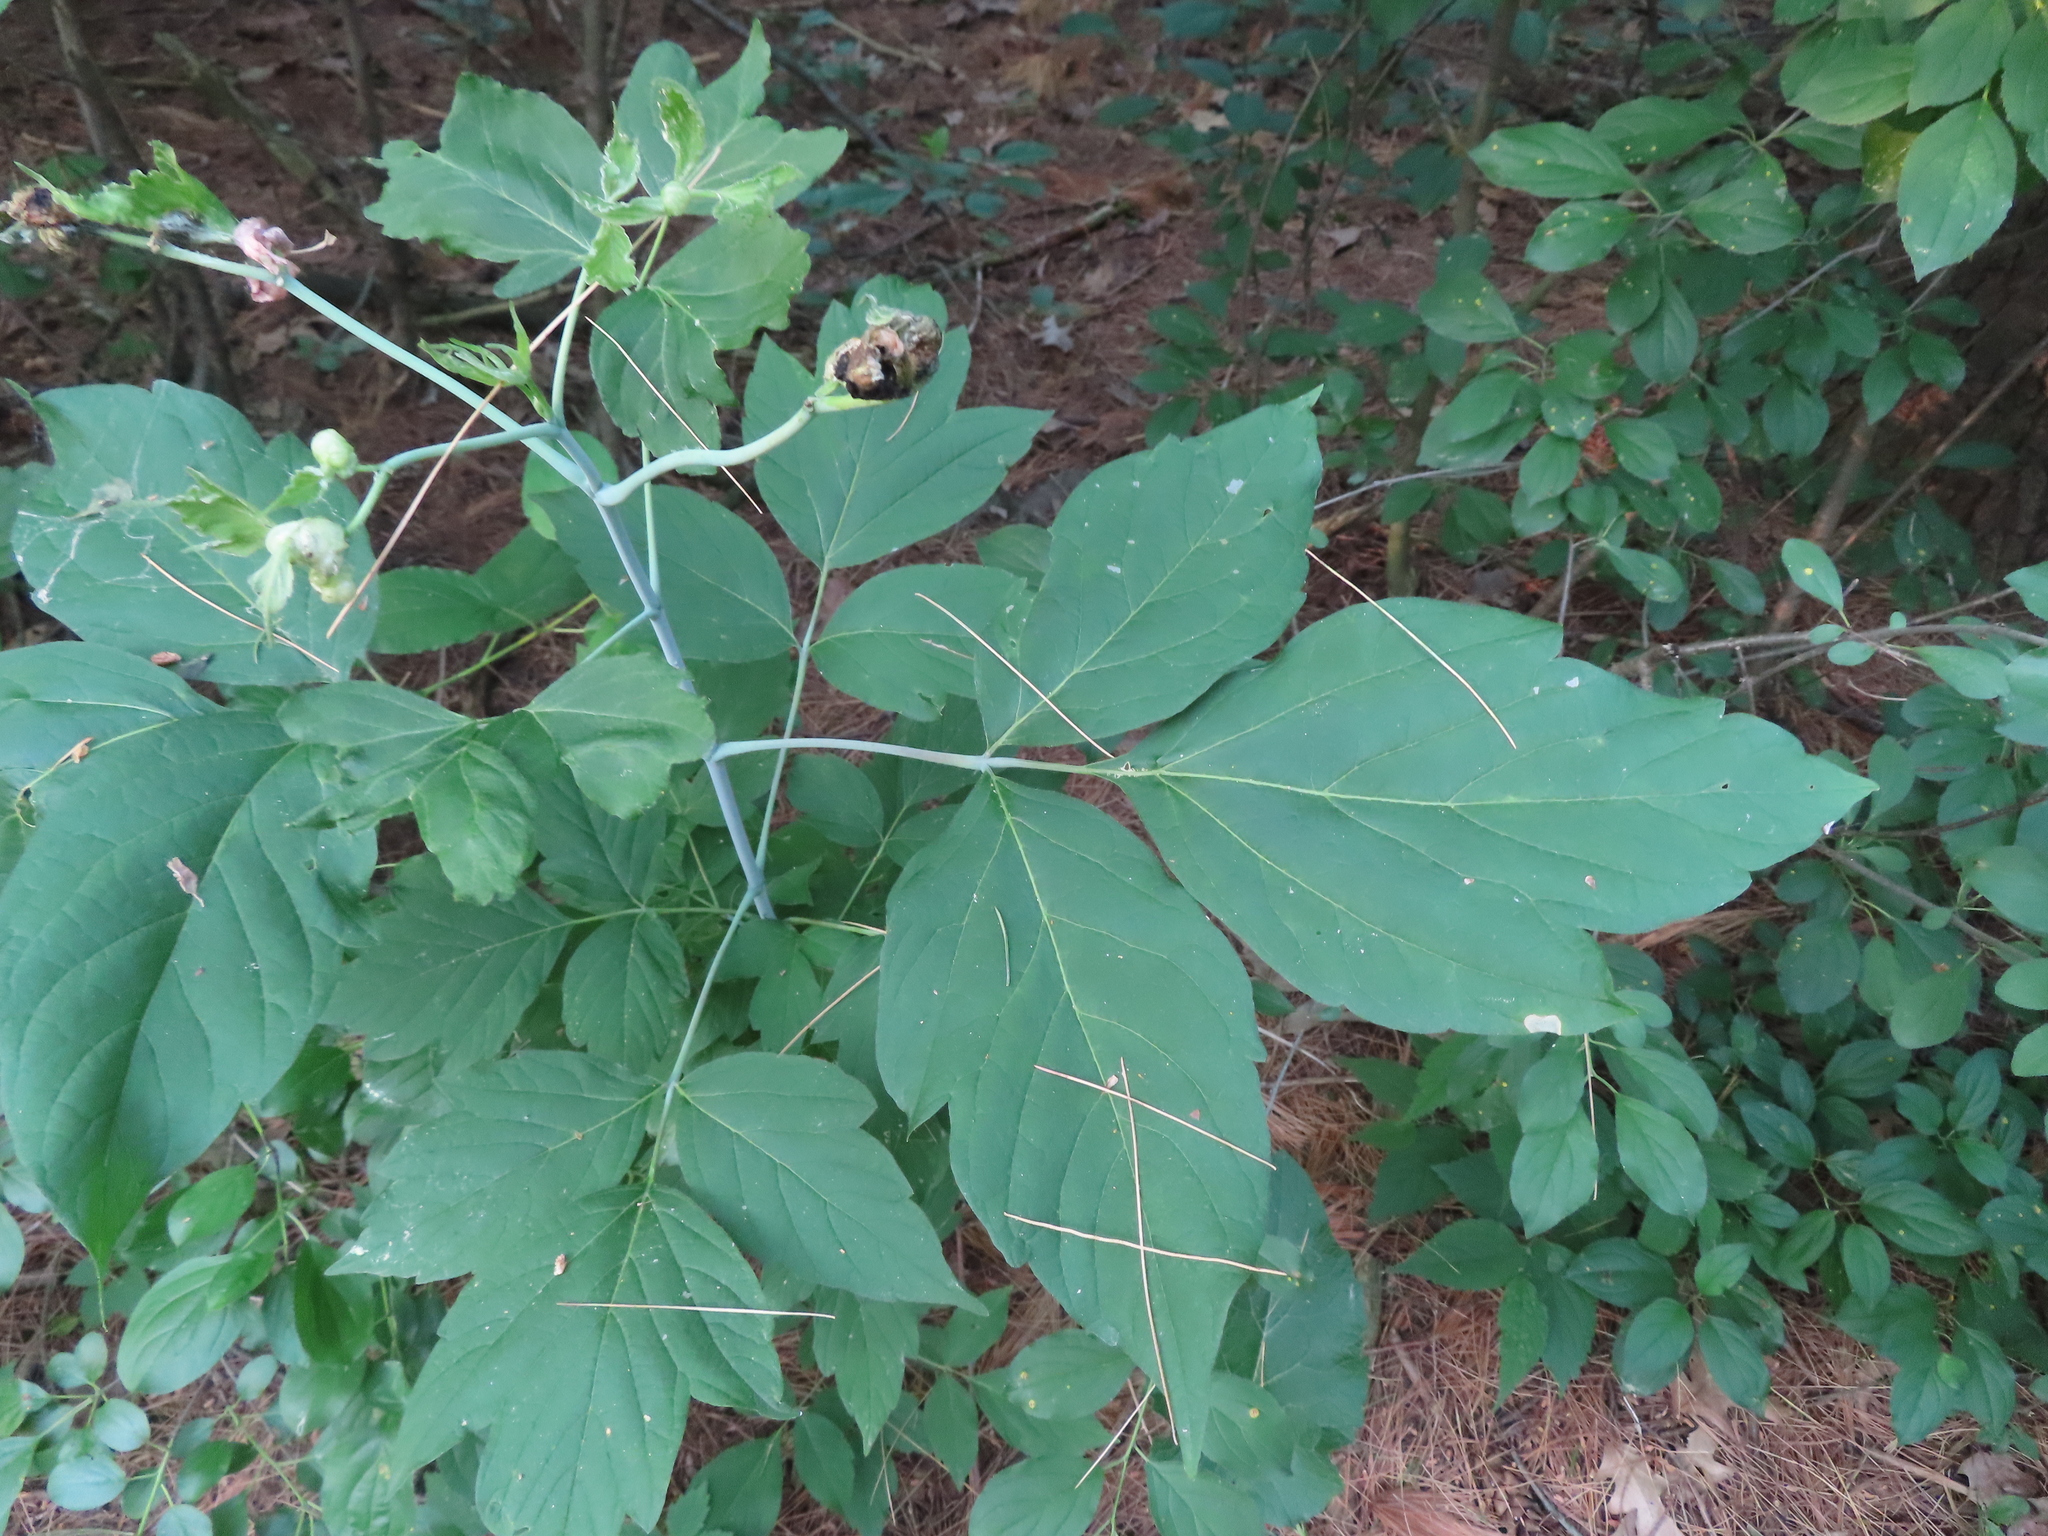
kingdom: Plantae
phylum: Tracheophyta
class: Magnoliopsida
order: Sapindales
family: Sapindaceae
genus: Acer
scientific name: Acer negundo
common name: Ashleaf maple
